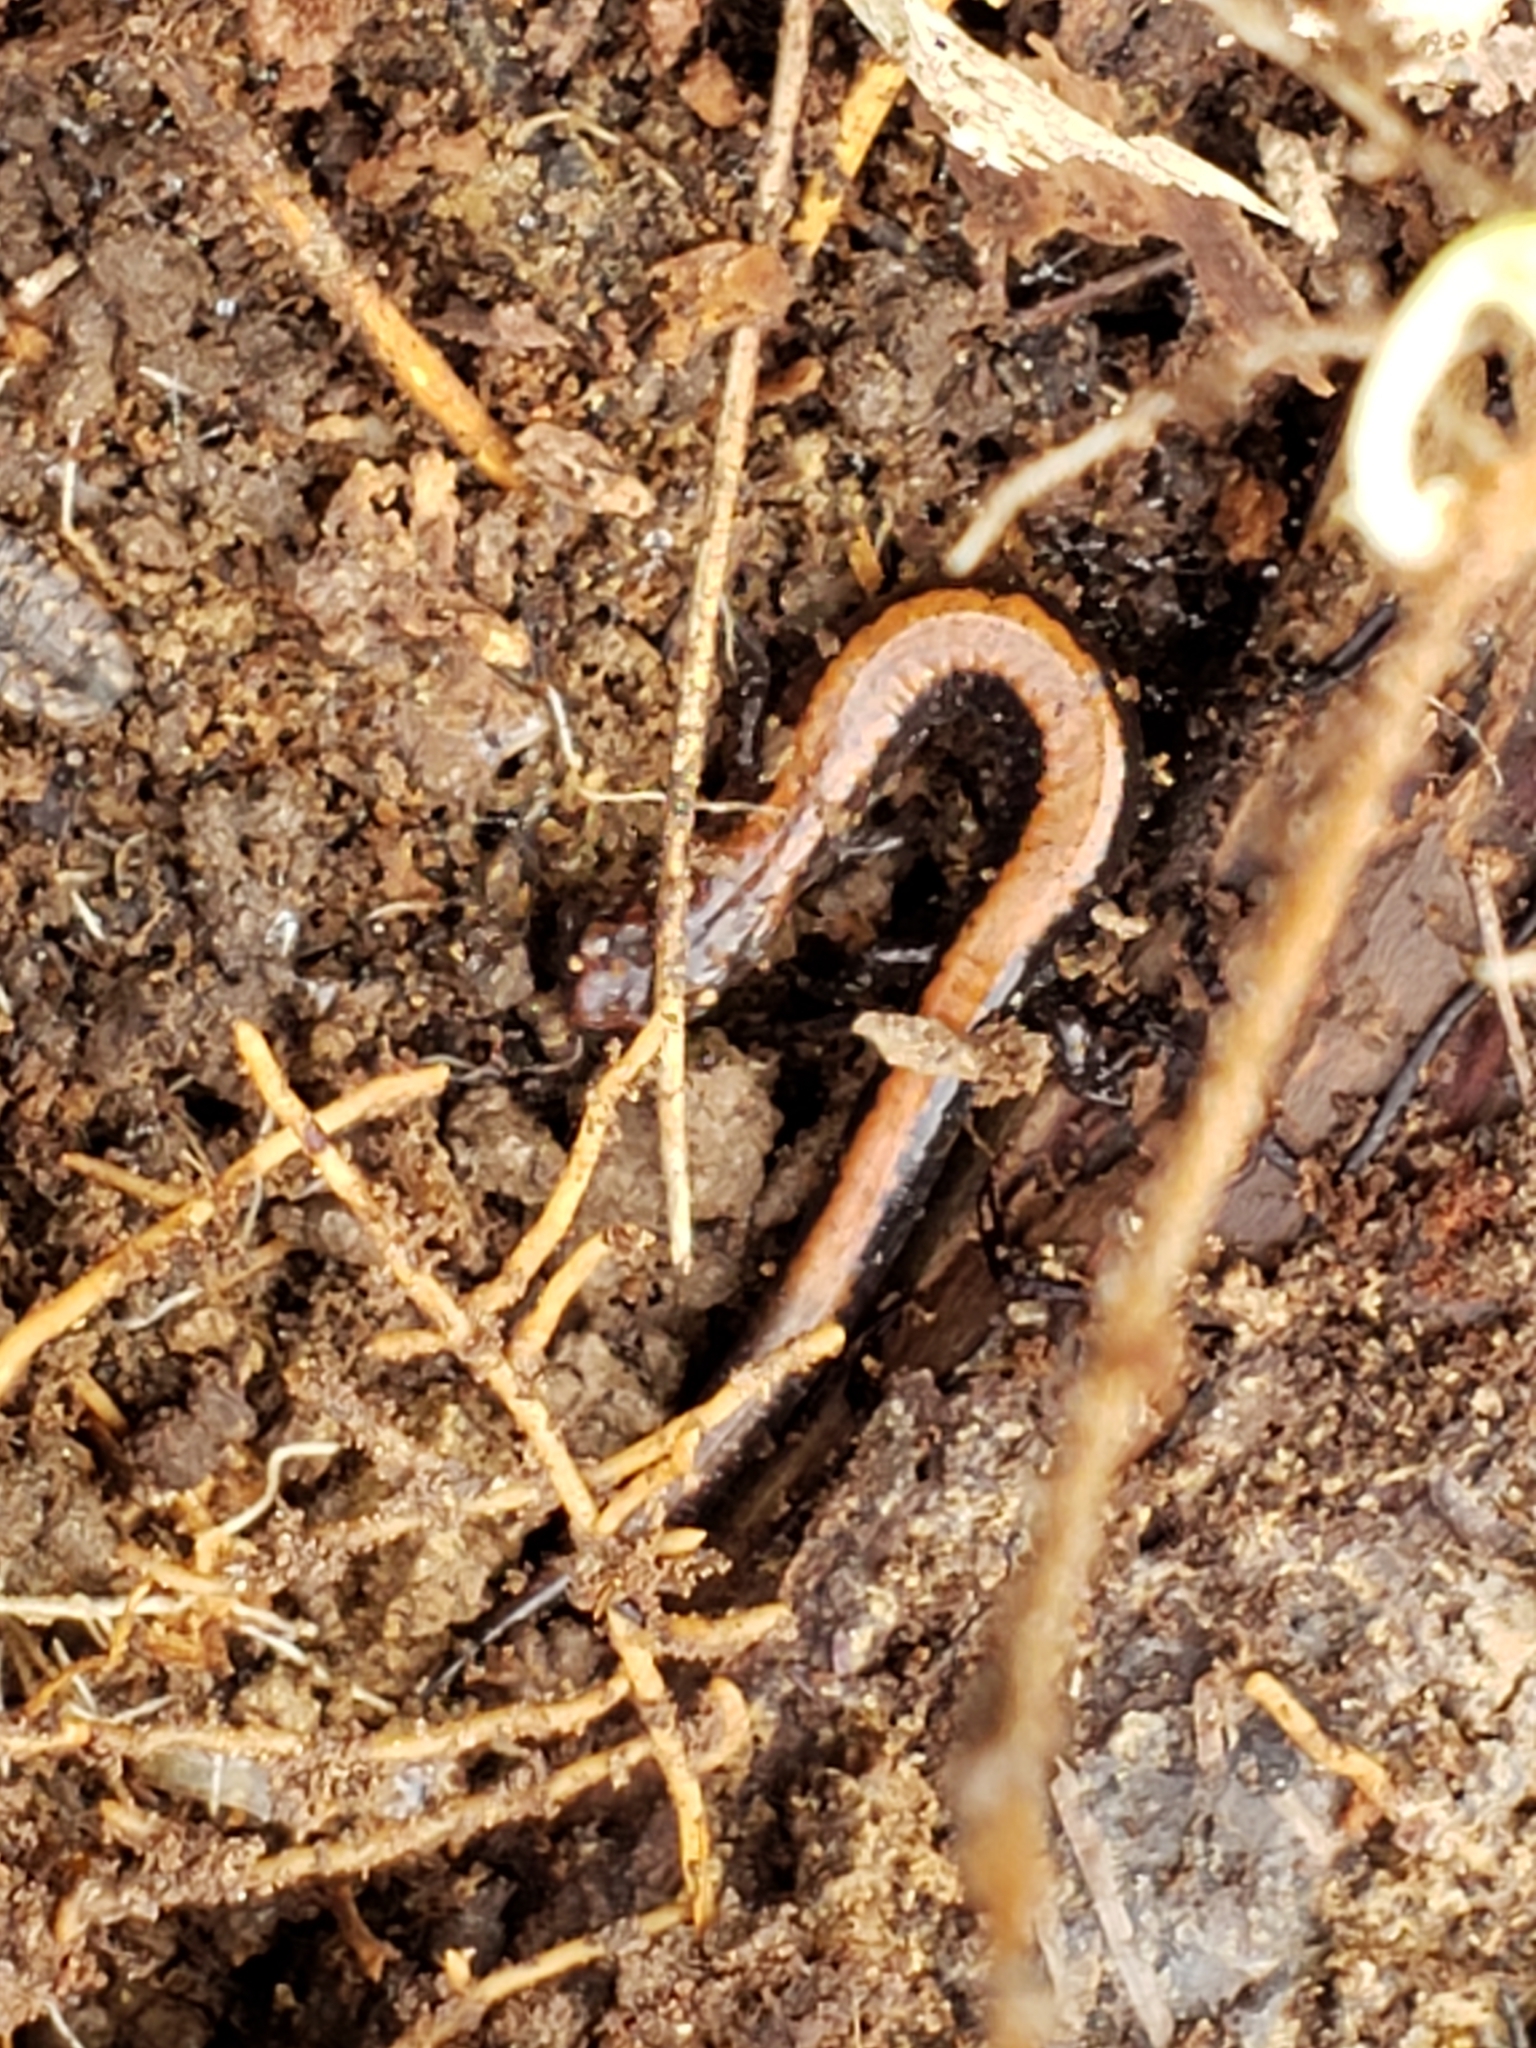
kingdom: Animalia
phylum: Chordata
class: Amphibia
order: Caudata
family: Plethodontidae
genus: Plethodon
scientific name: Plethodon cinereus
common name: Redback salamander
